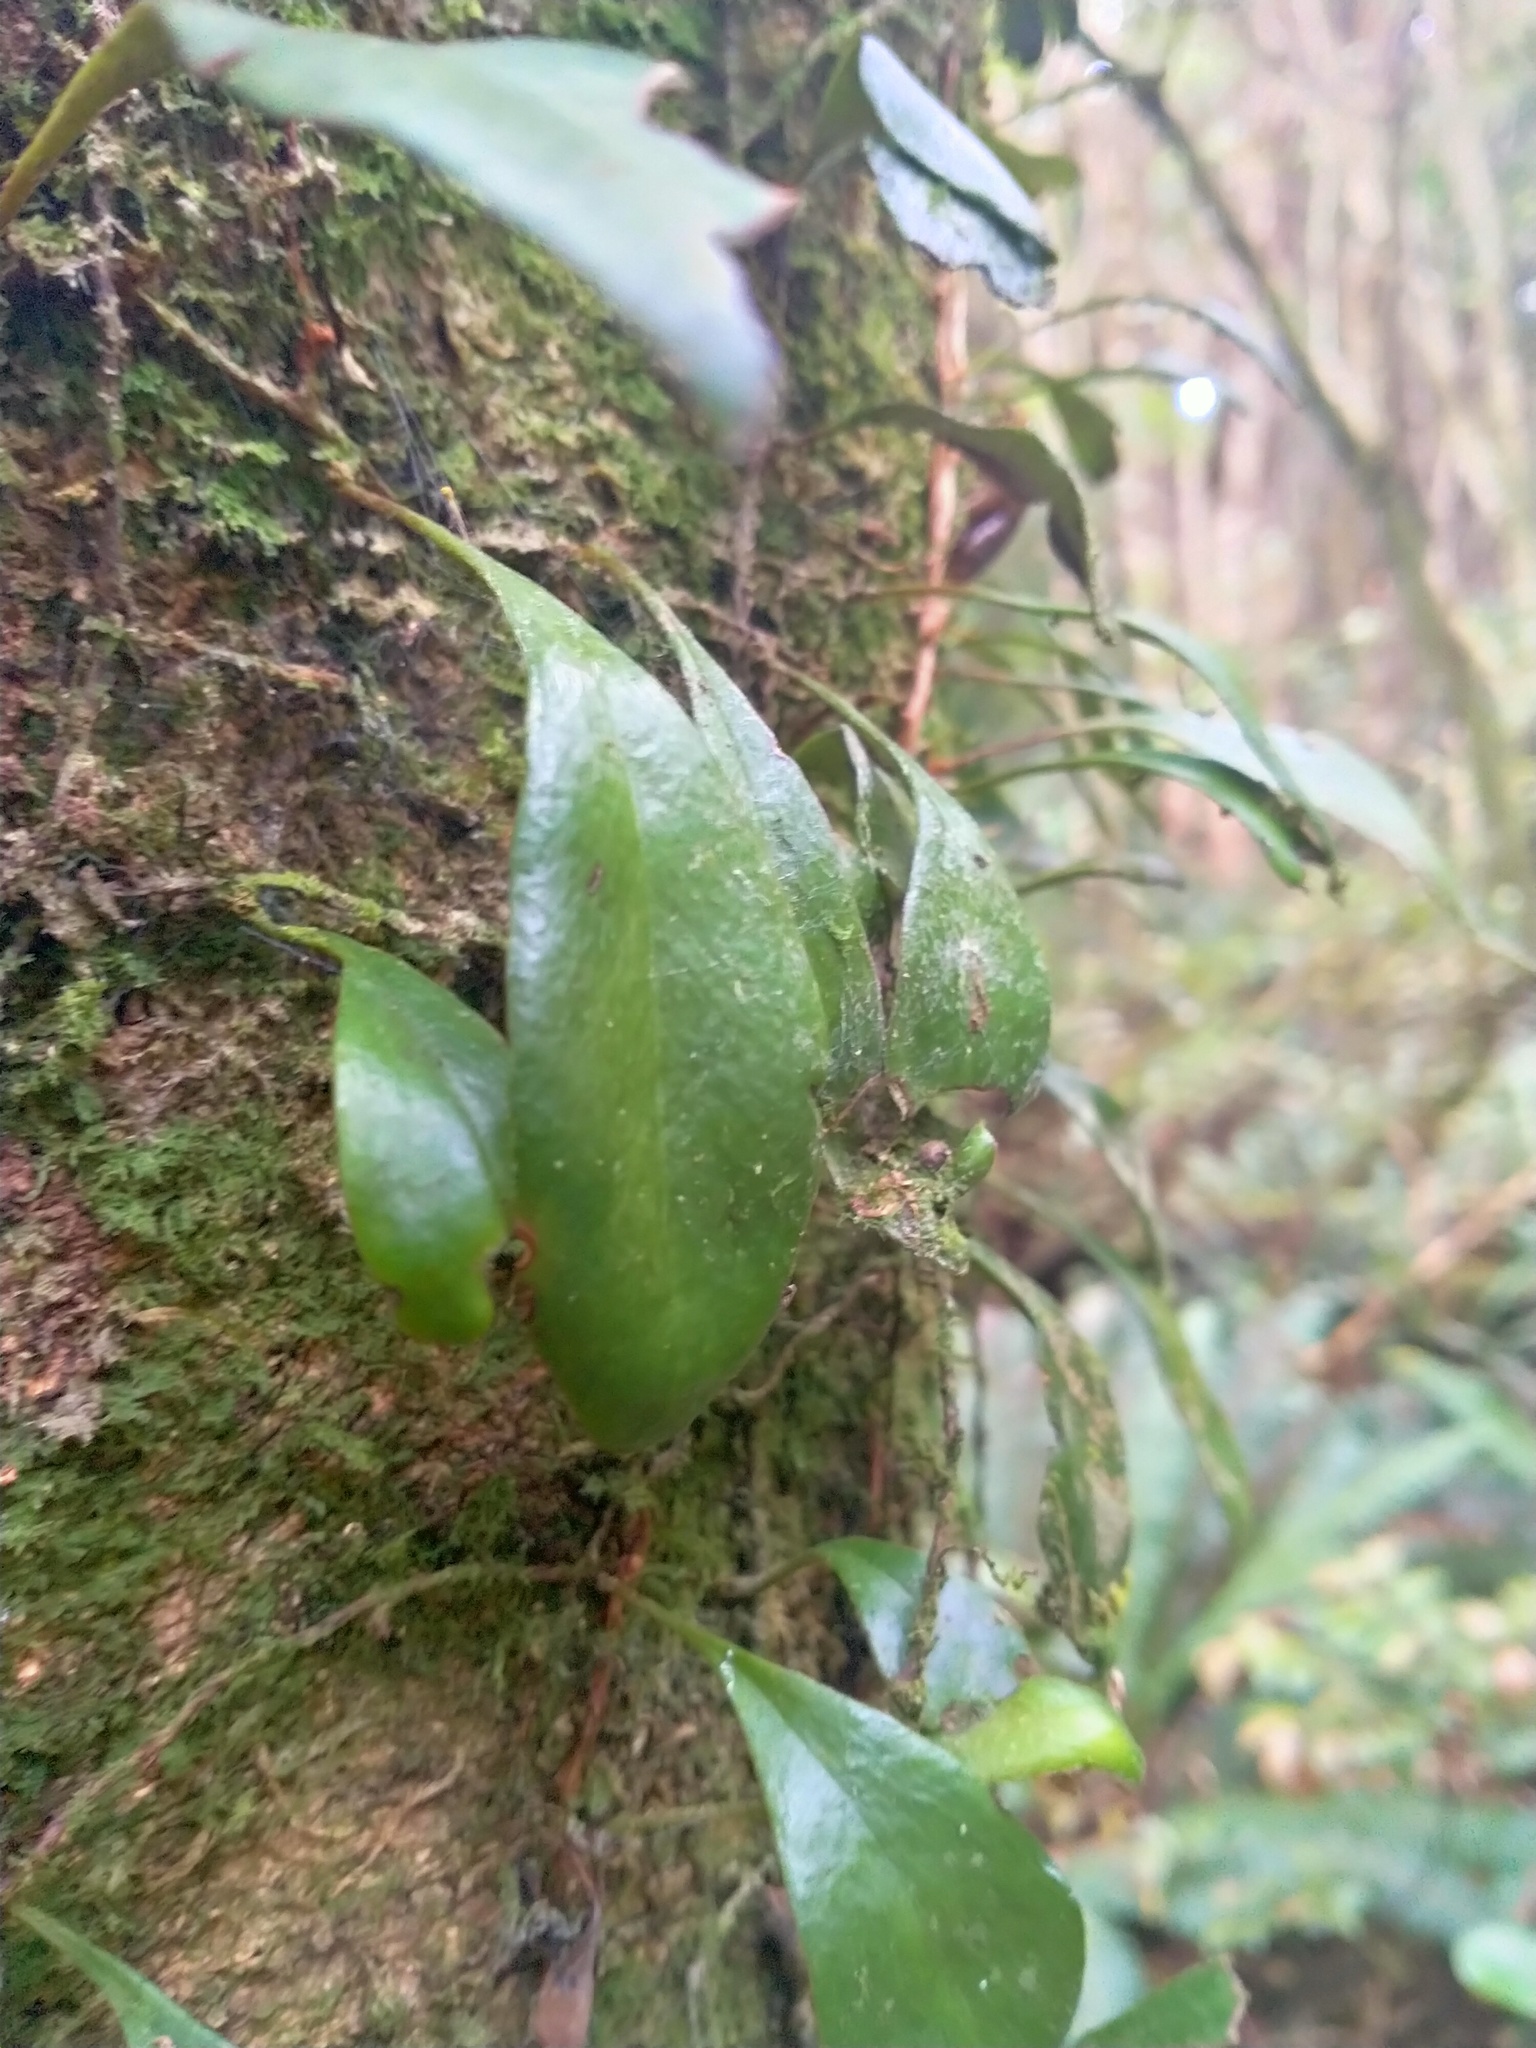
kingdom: Plantae
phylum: Tracheophyta
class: Polypodiopsida
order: Polypodiales
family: Polypodiaceae
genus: Pyrrosia
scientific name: Pyrrosia eleagnifolia
